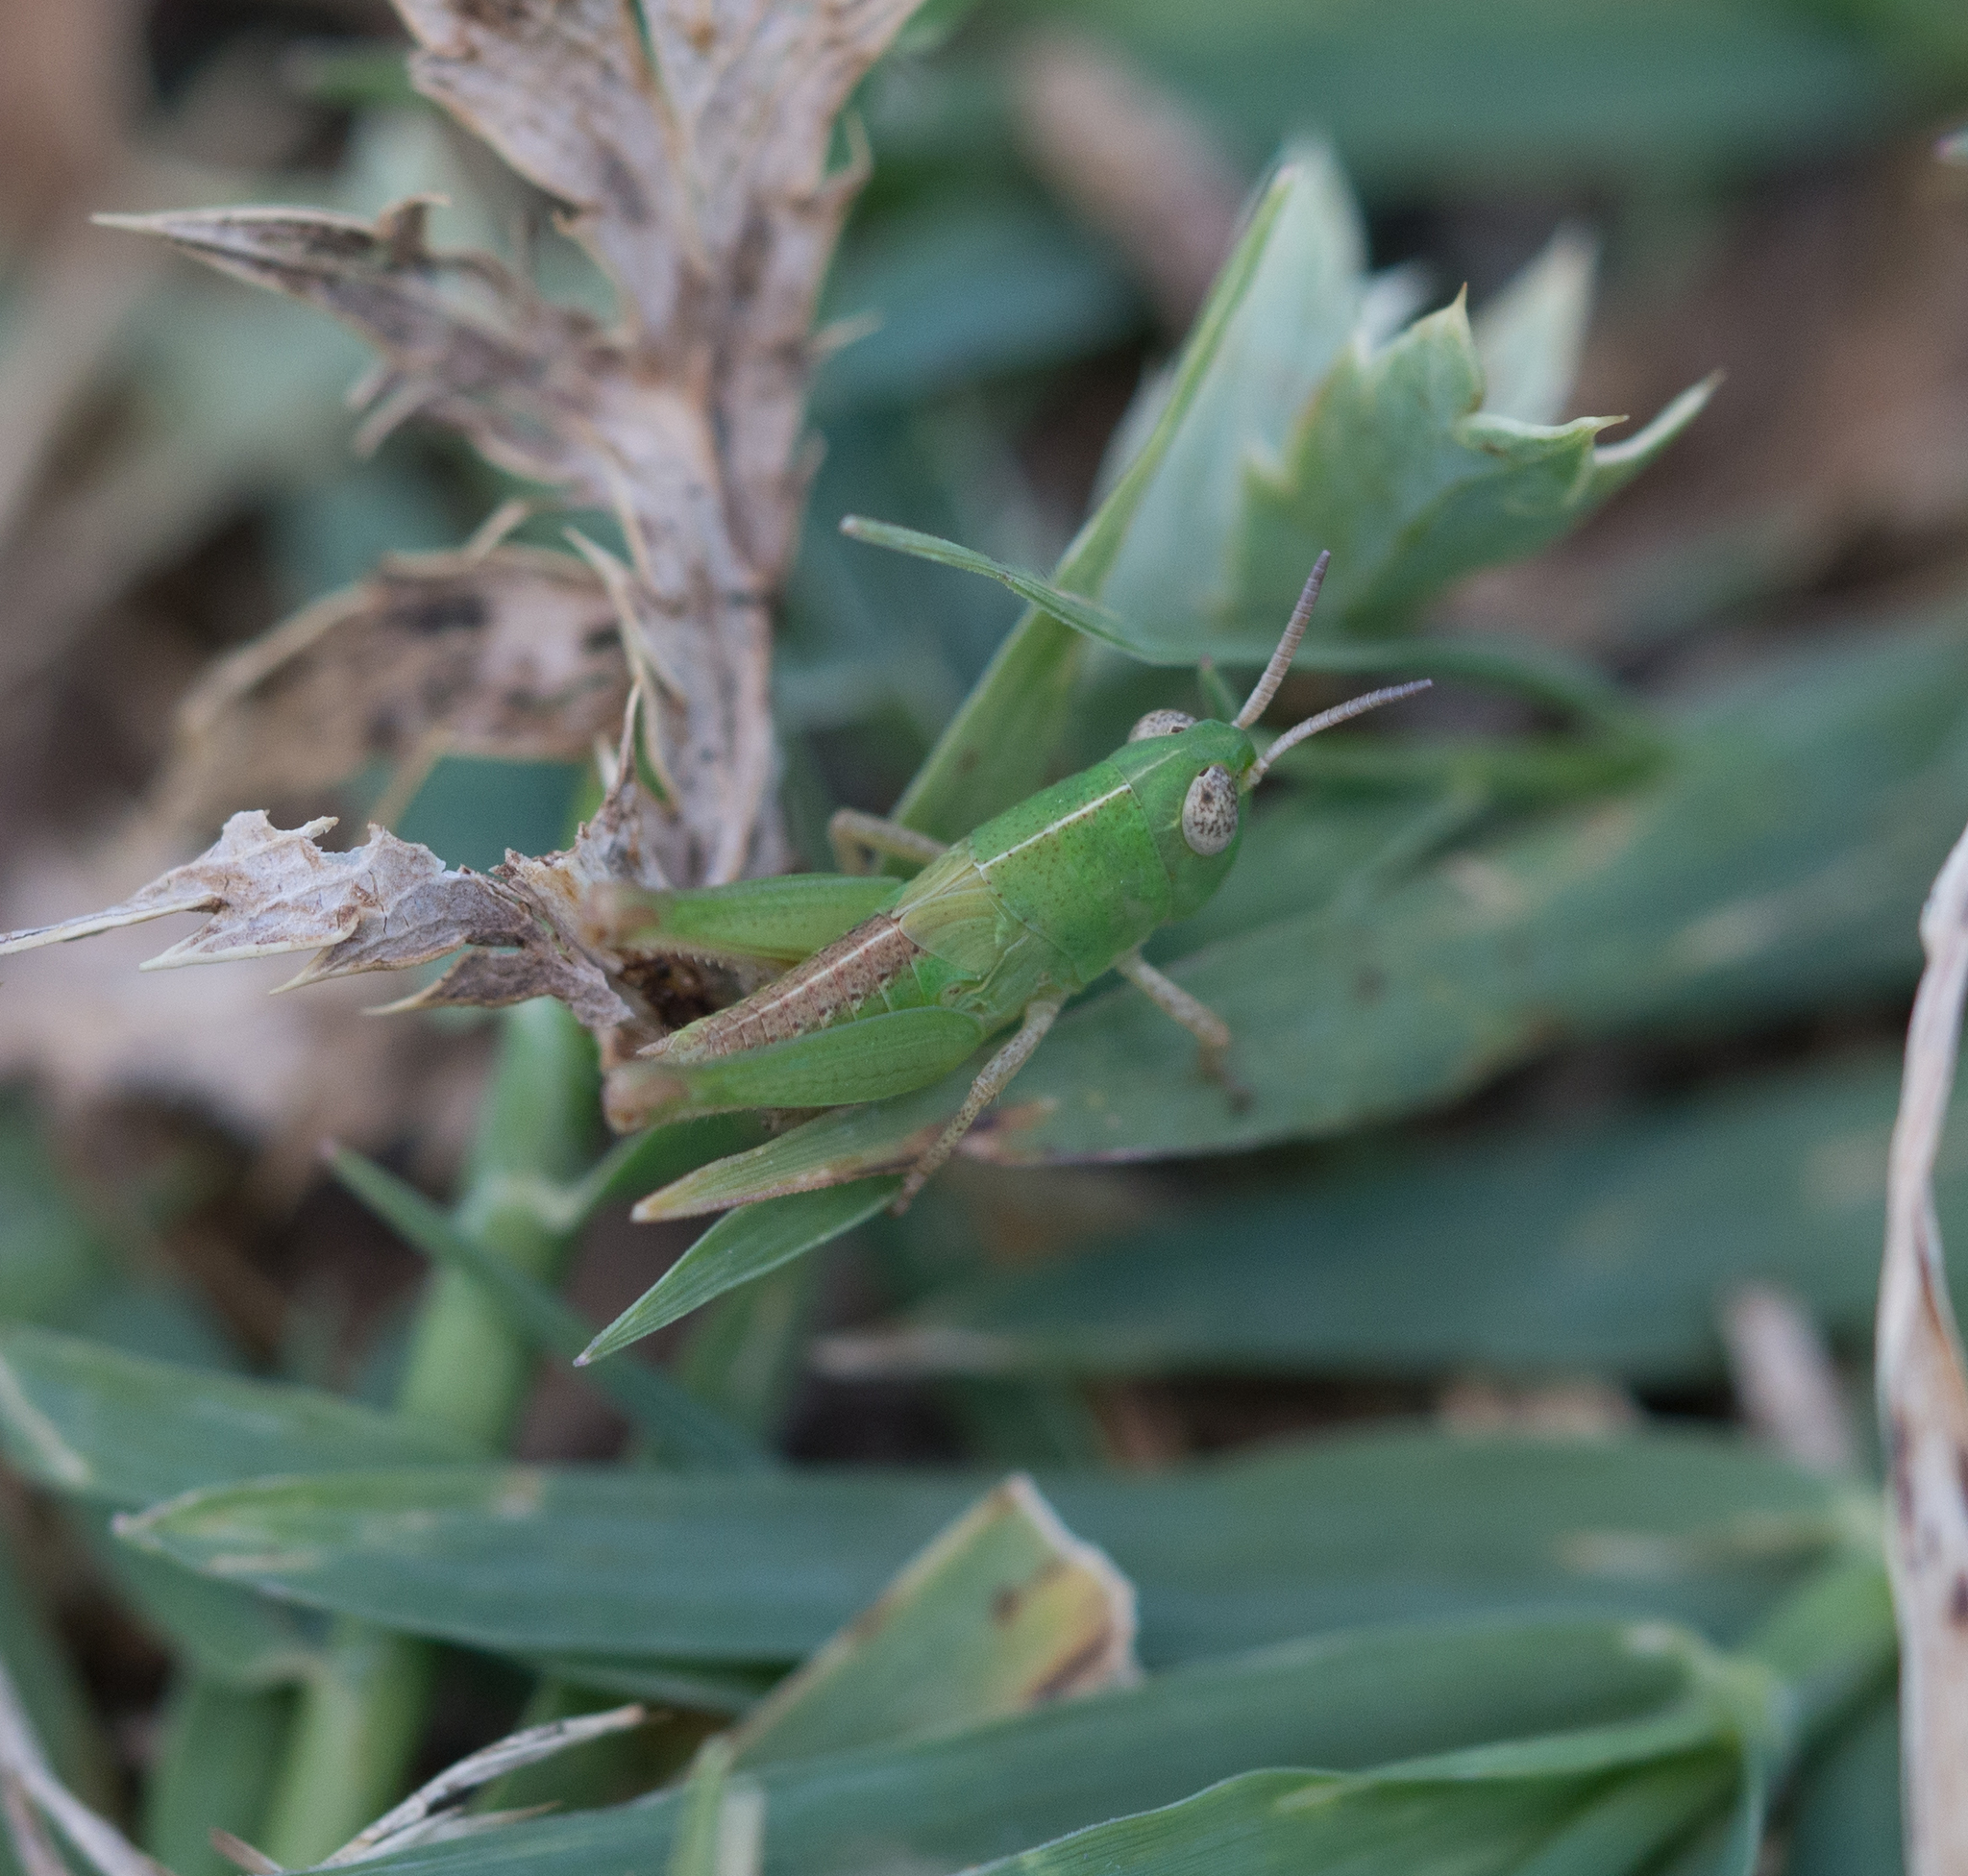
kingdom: Animalia
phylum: Arthropoda
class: Insecta
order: Orthoptera
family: Acrididae
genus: Aiolopus
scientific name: Aiolopus thalassinus
